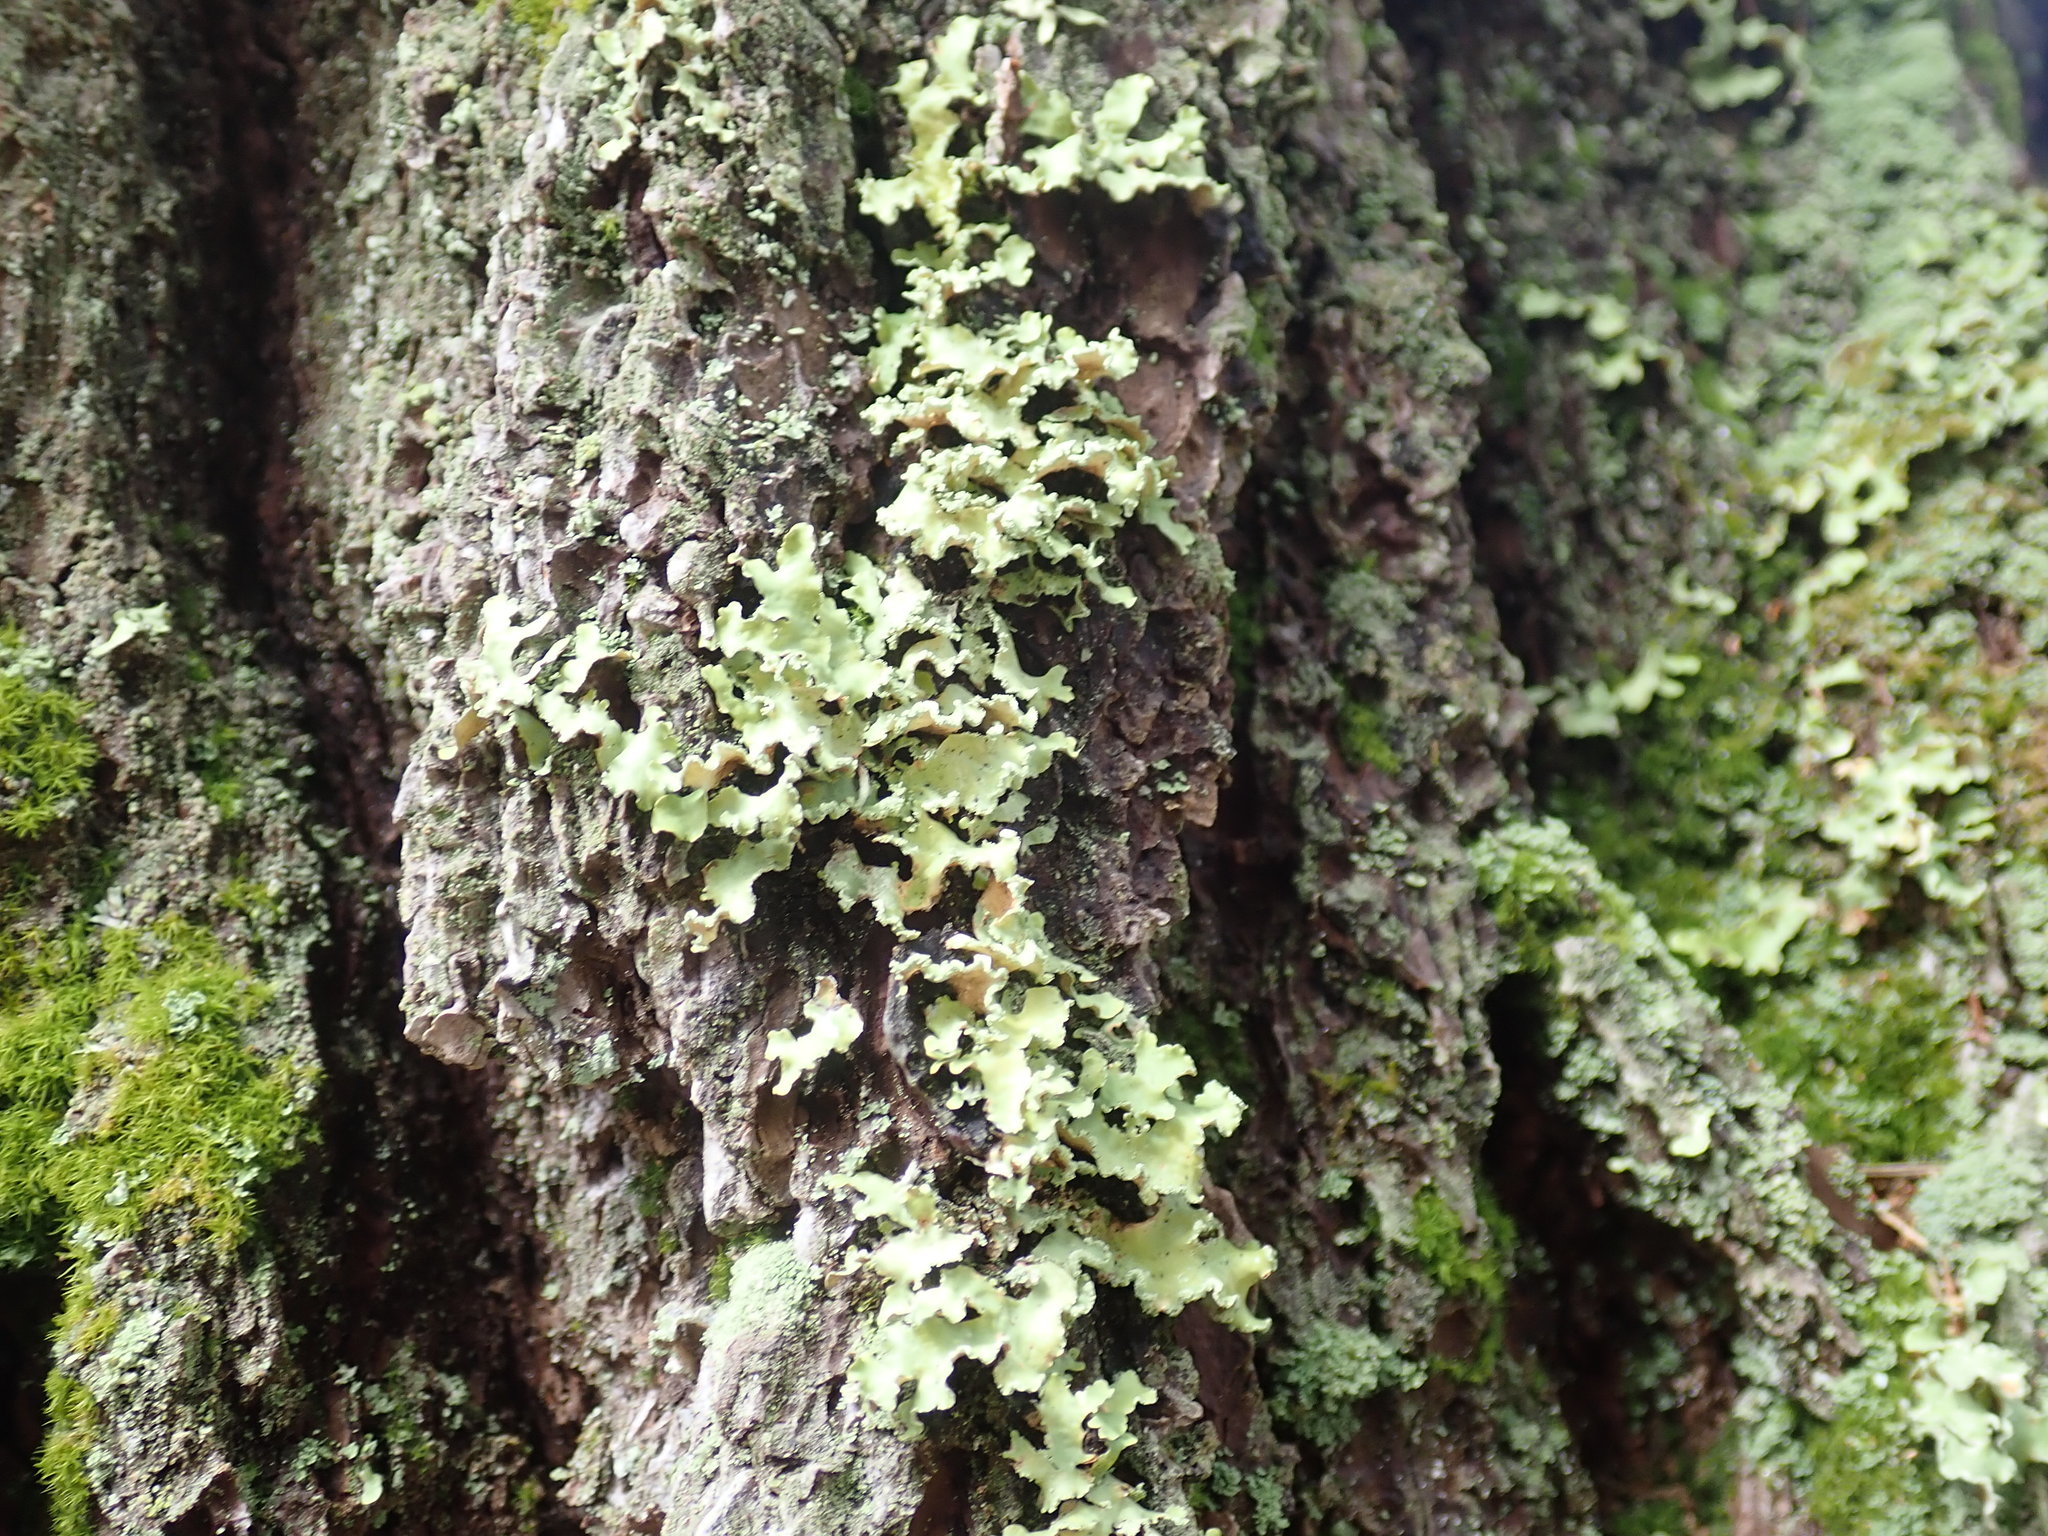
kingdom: Fungi
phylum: Ascomycota
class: Lecanoromycetes
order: Lecanorales
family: Parmeliaceae
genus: Usnocetraria
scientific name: Usnocetraria oakesiana
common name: Yellow ribbon lichen
